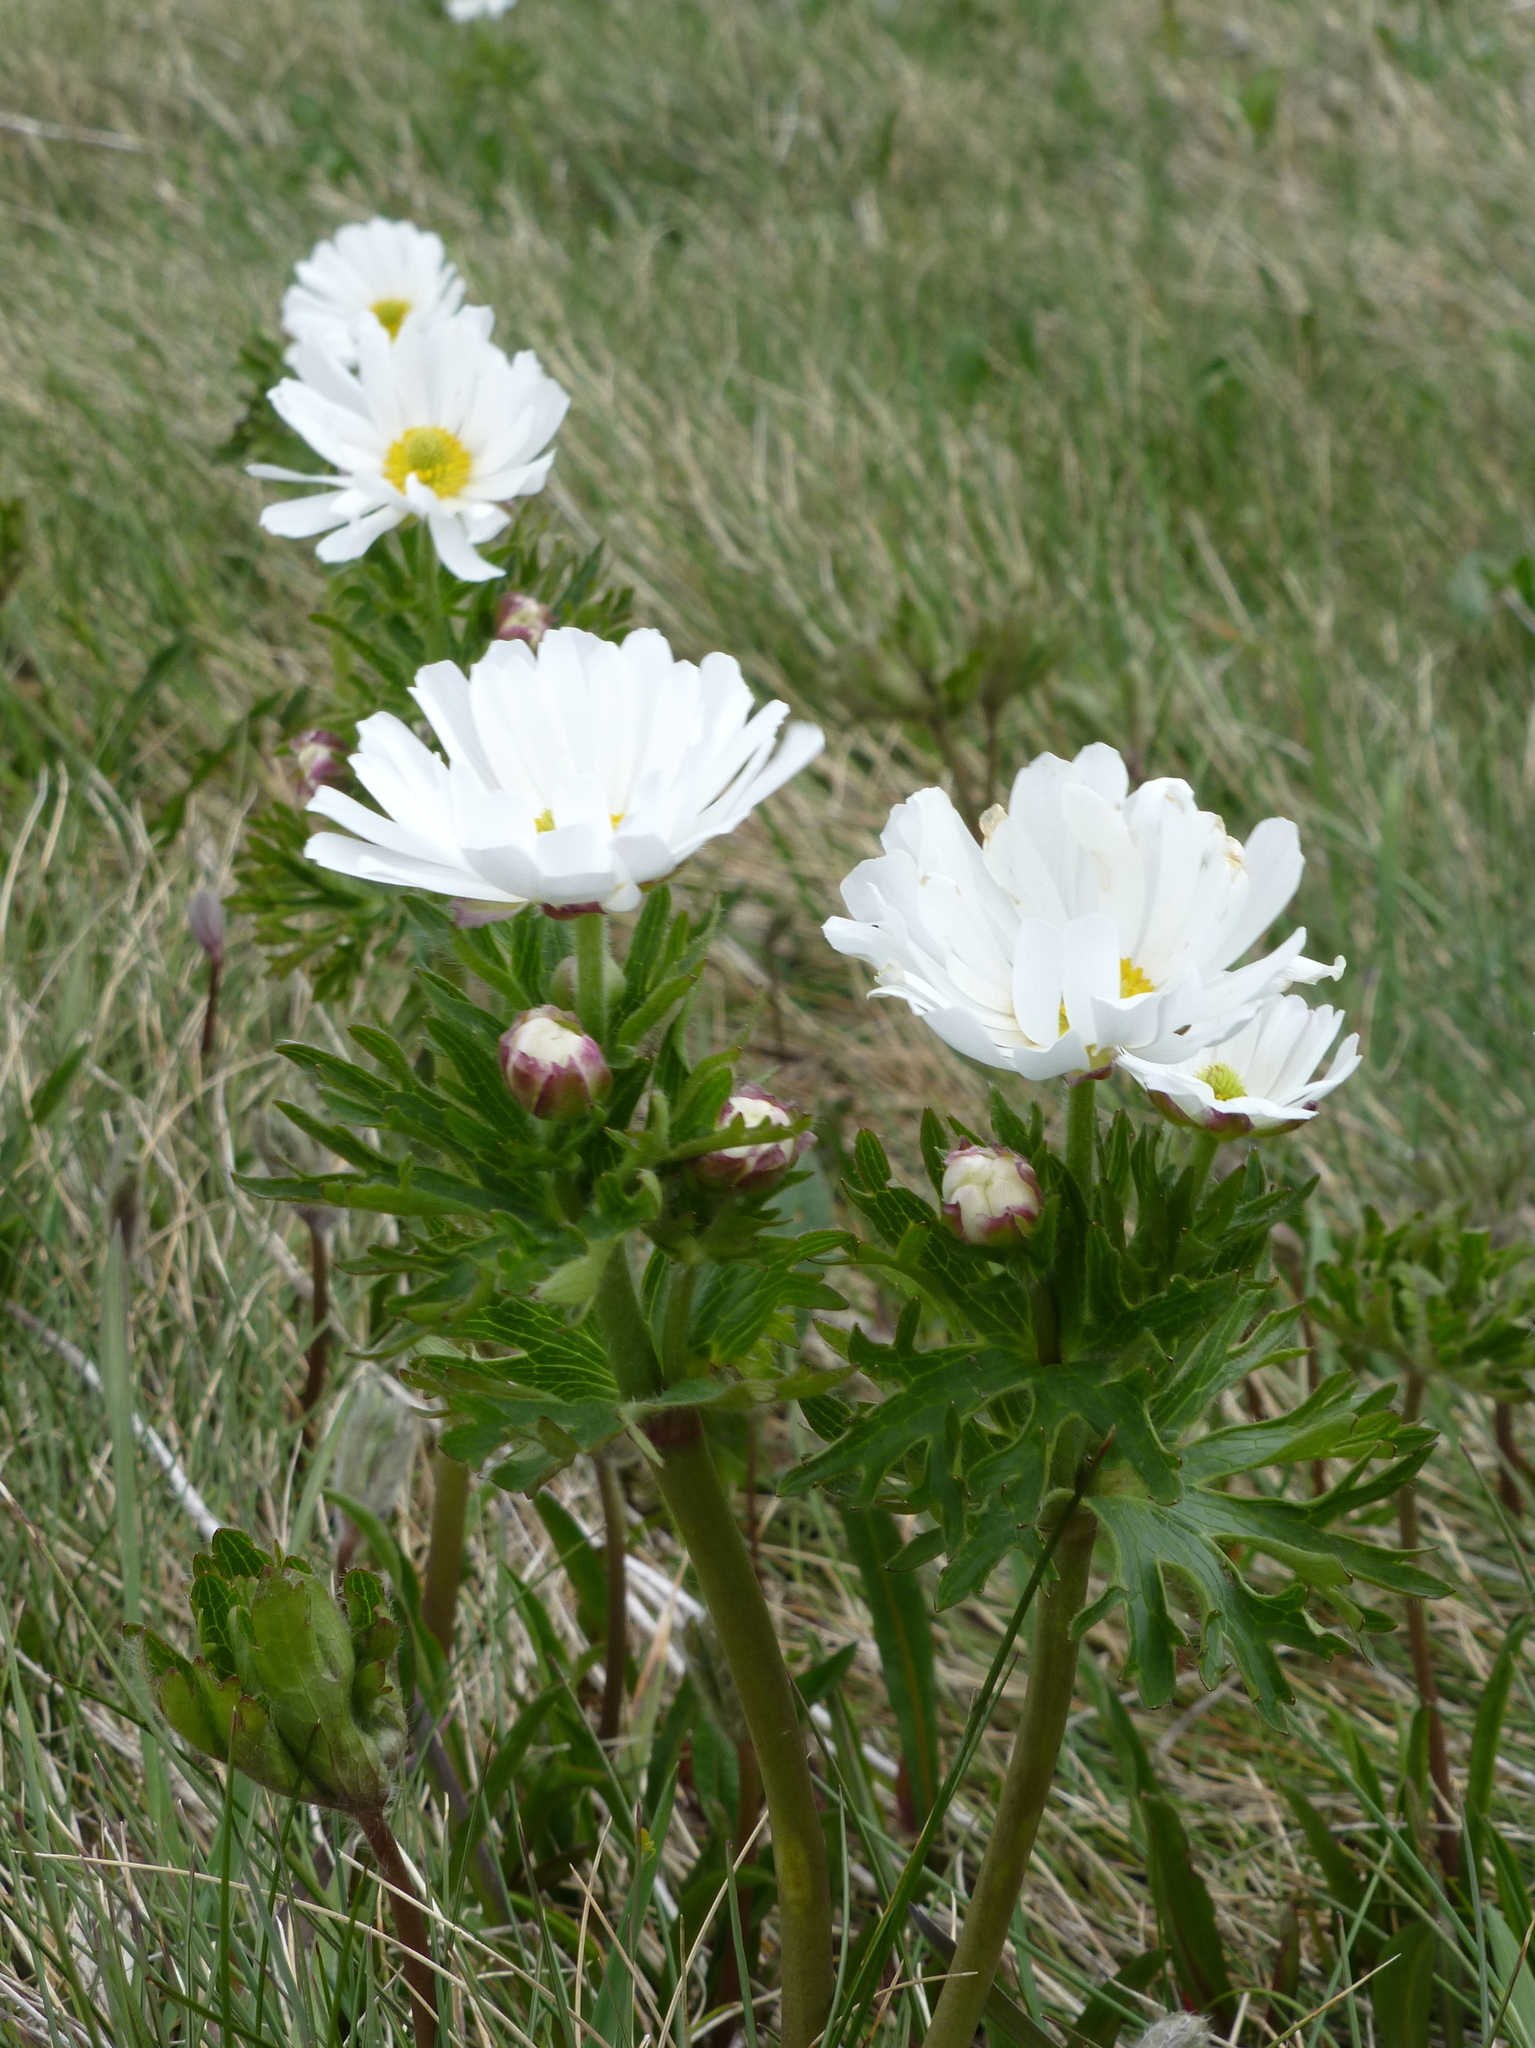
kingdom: Plantae
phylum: Tracheophyta
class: Magnoliopsida
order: Ranunculales
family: Ranunculaceae
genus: Ranunculus
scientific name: Ranunculus anemoneus
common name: Anemone buttercup
